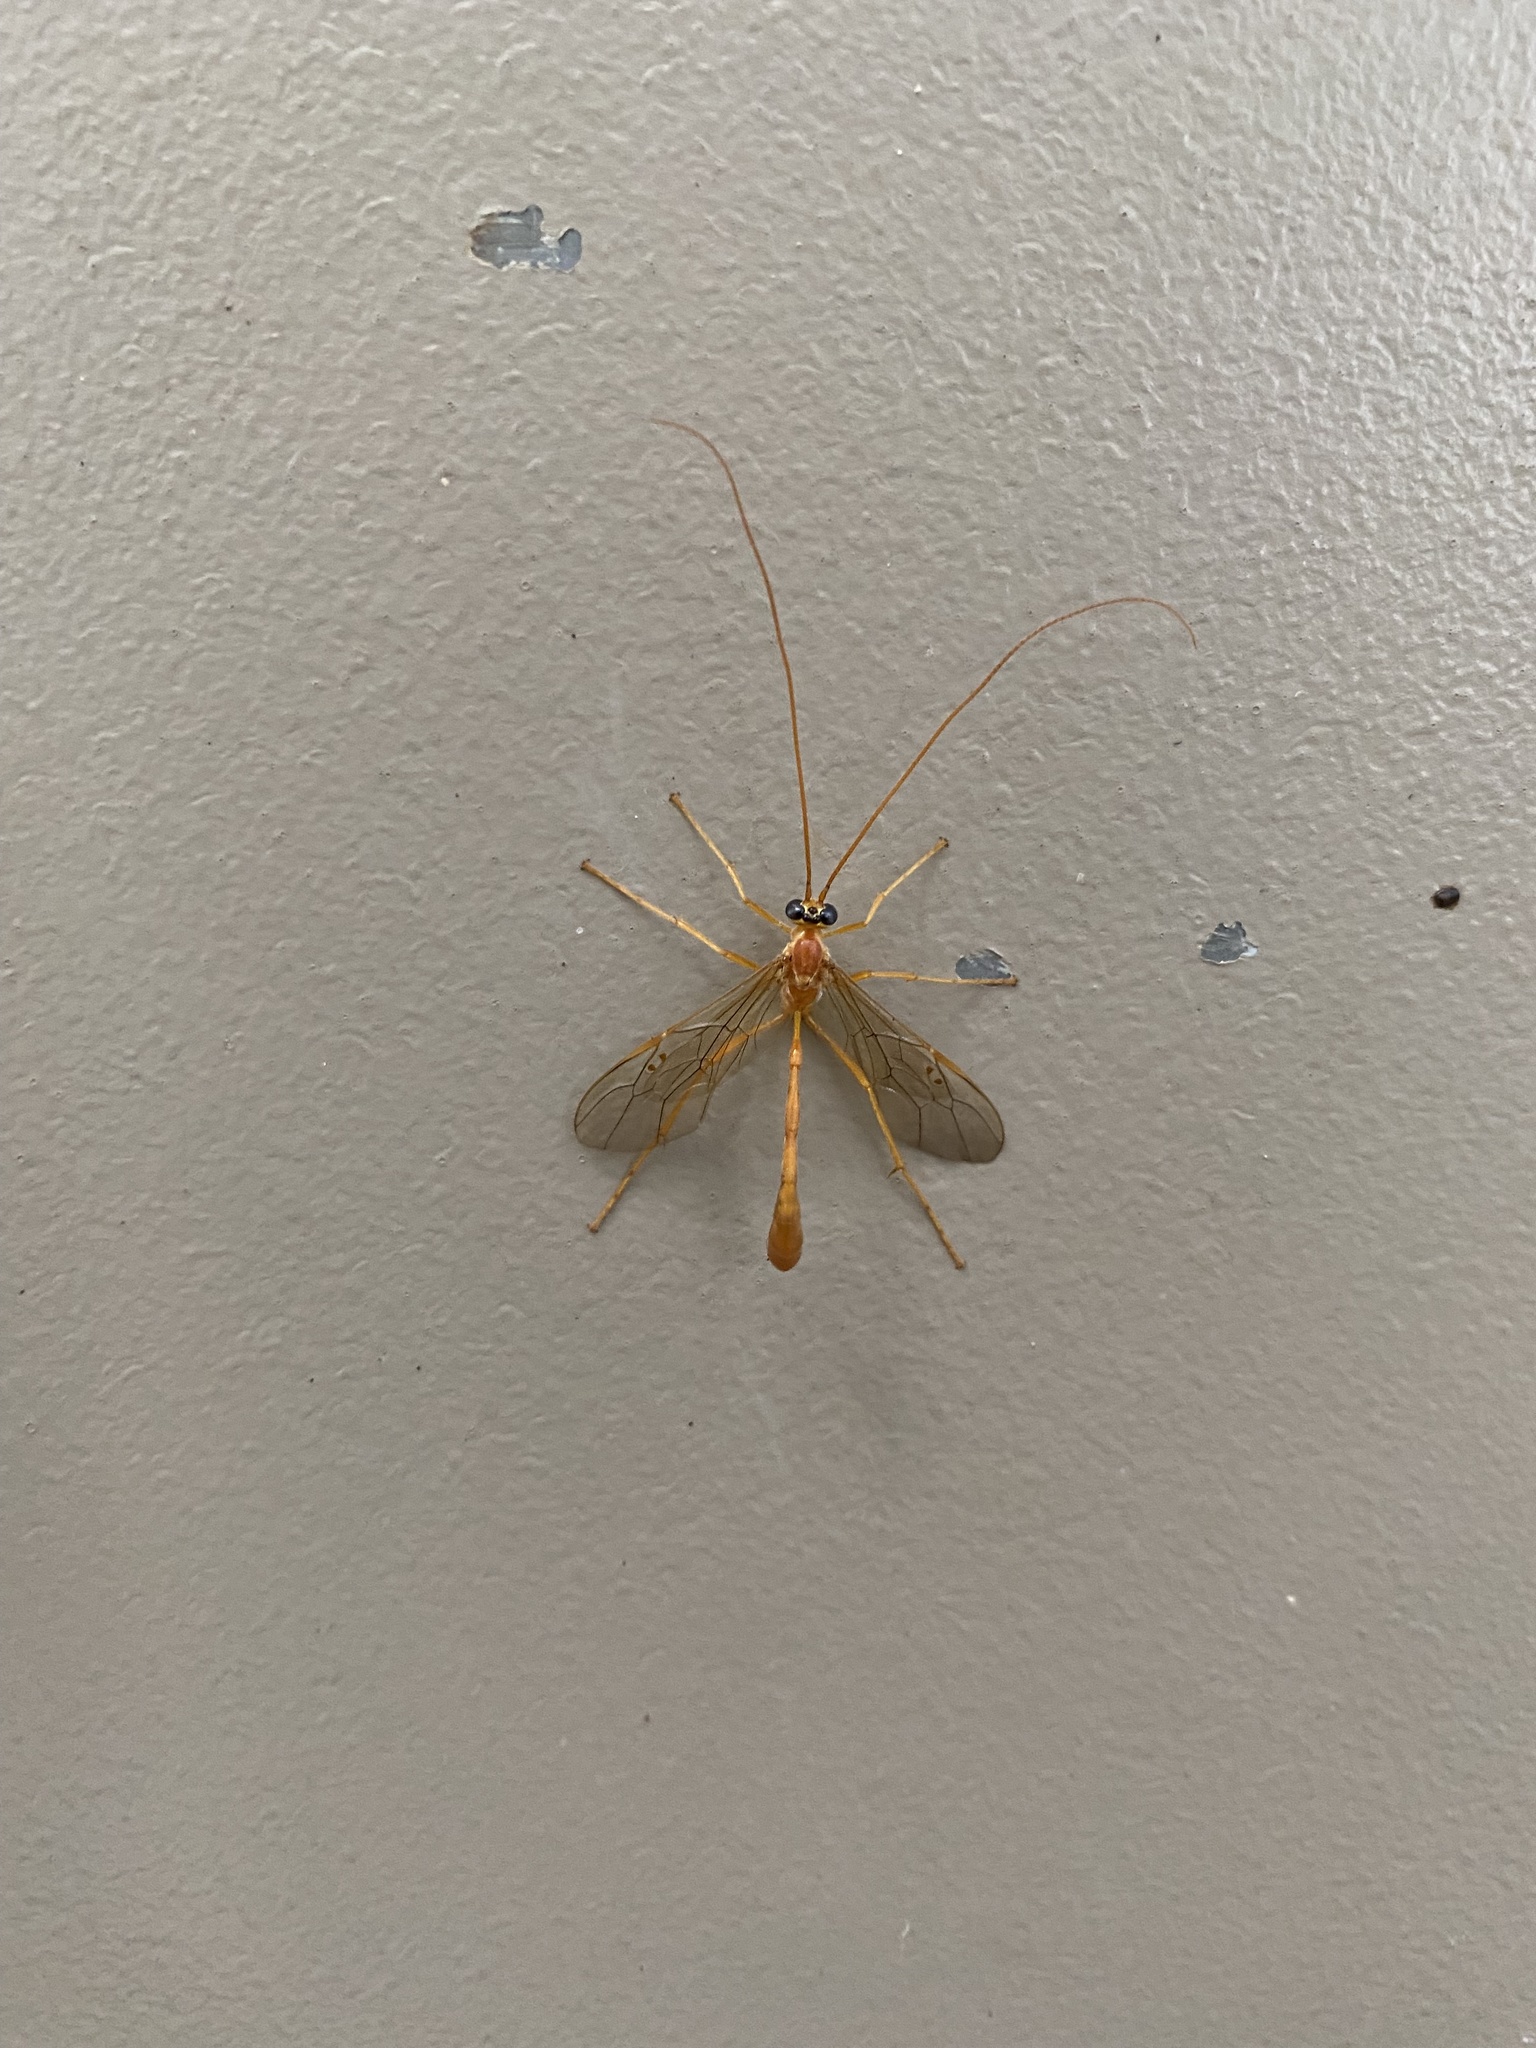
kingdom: Animalia
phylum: Arthropoda
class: Insecta
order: Hymenoptera
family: Ichneumonidae
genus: Enicospilus
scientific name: Enicospilus purgatus
